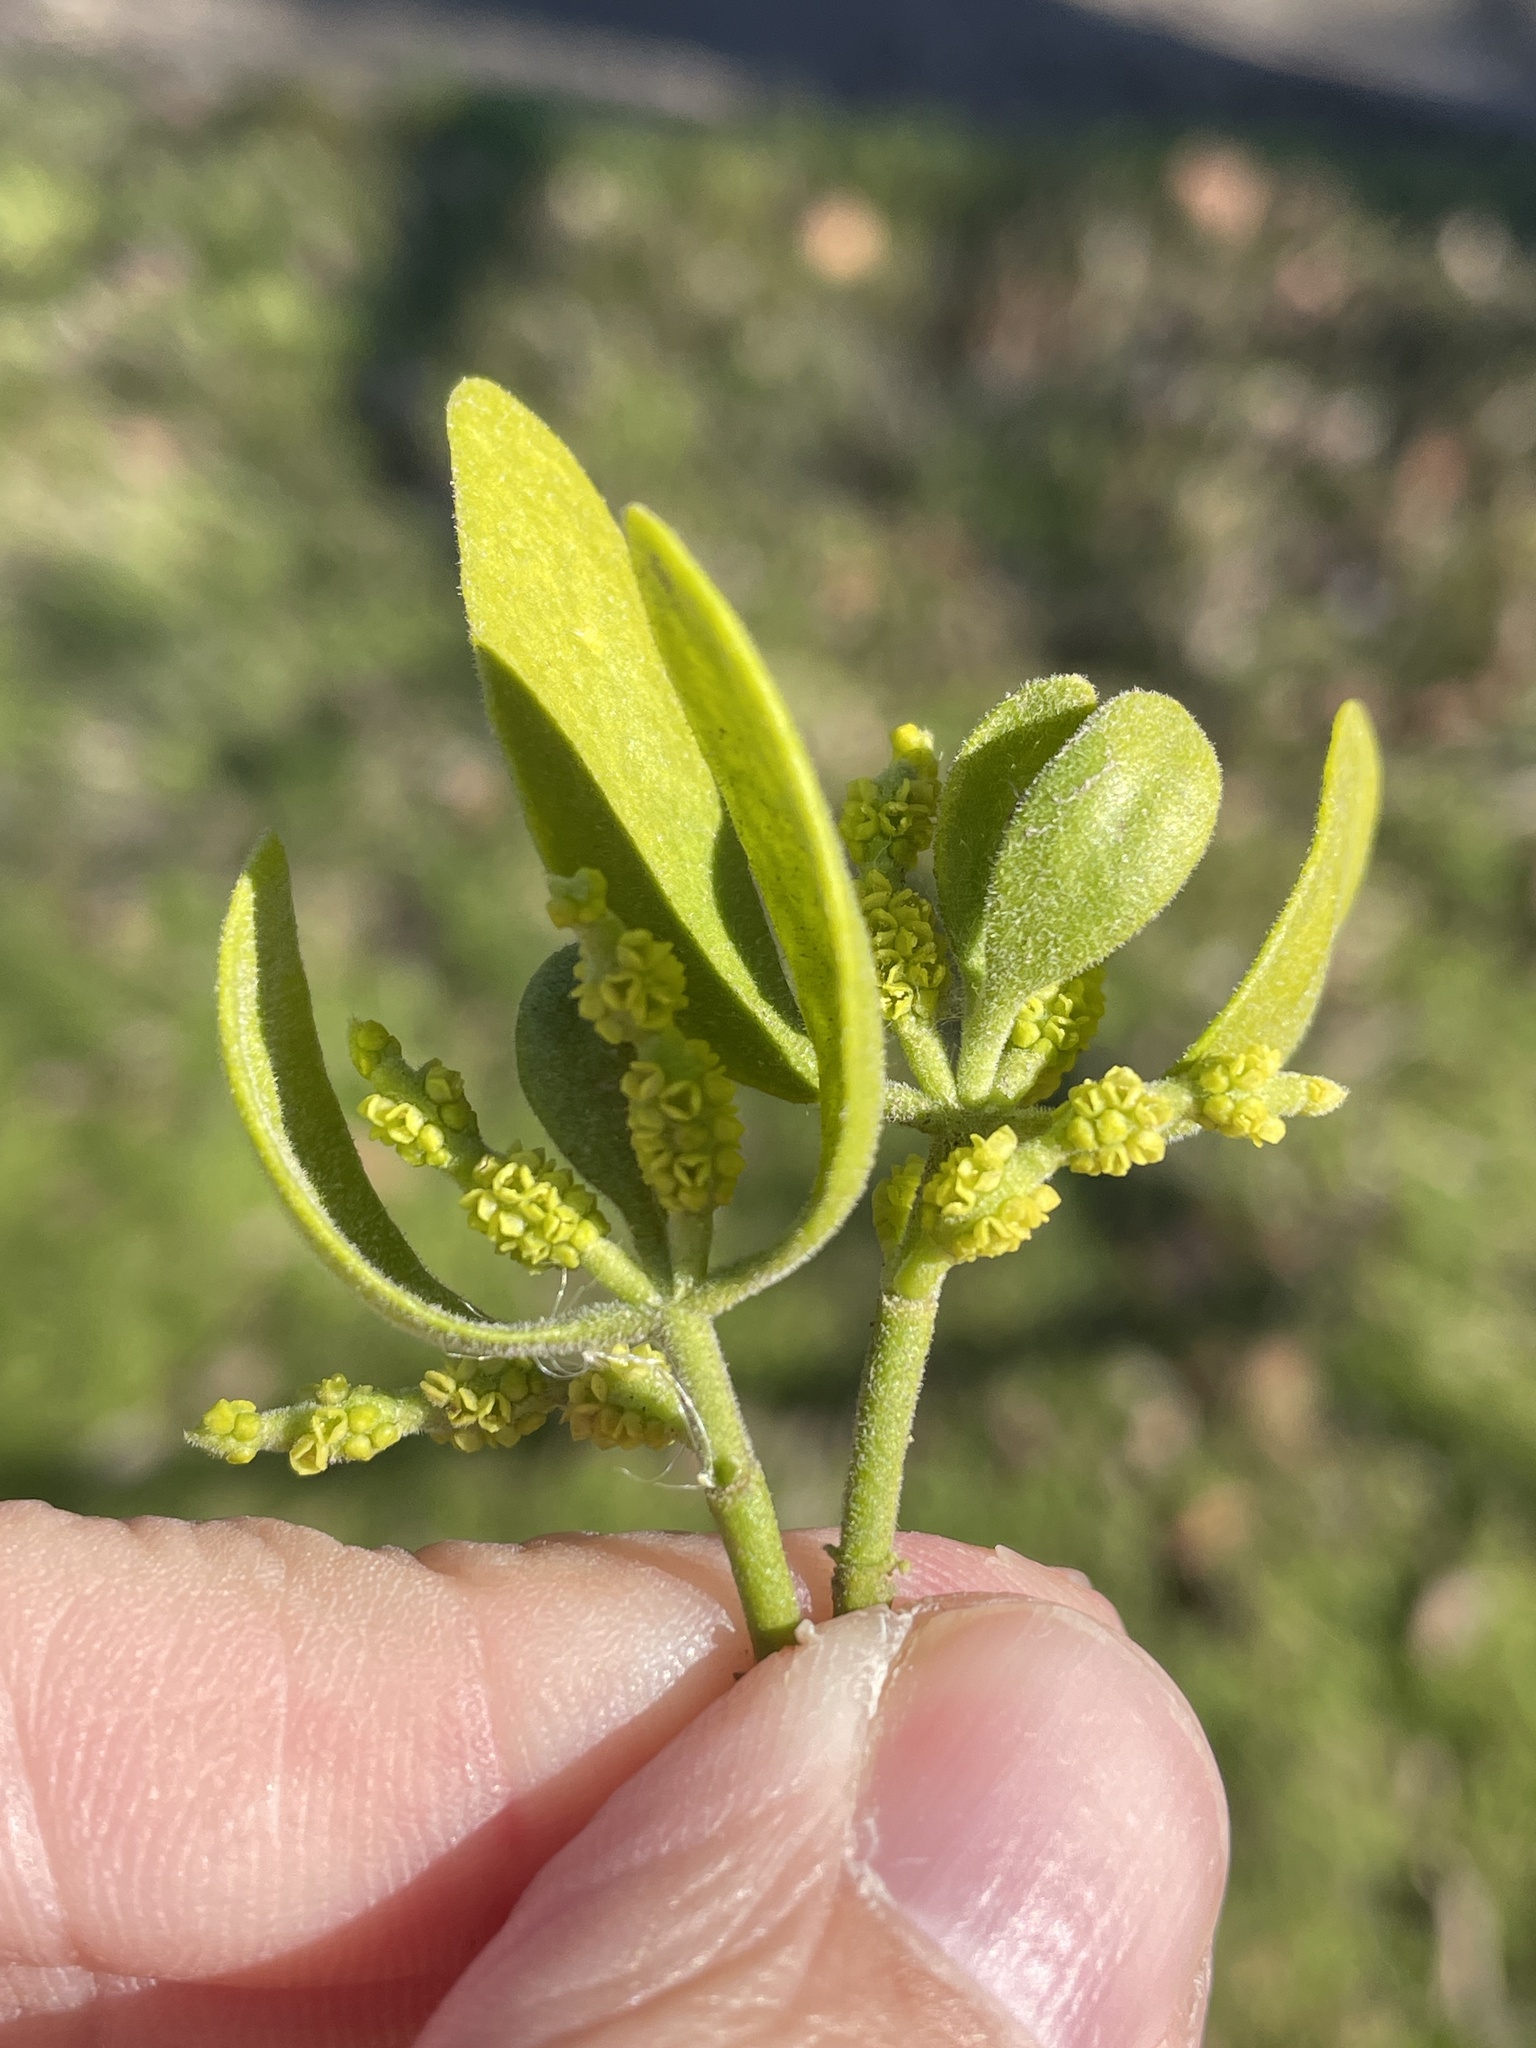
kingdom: Plantae
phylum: Tracheophyta
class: Magnoliopsida
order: Santalales
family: Viscaceae
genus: Phoradendron
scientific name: Phoradendron leucarpum
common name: Pacific mistletoe
